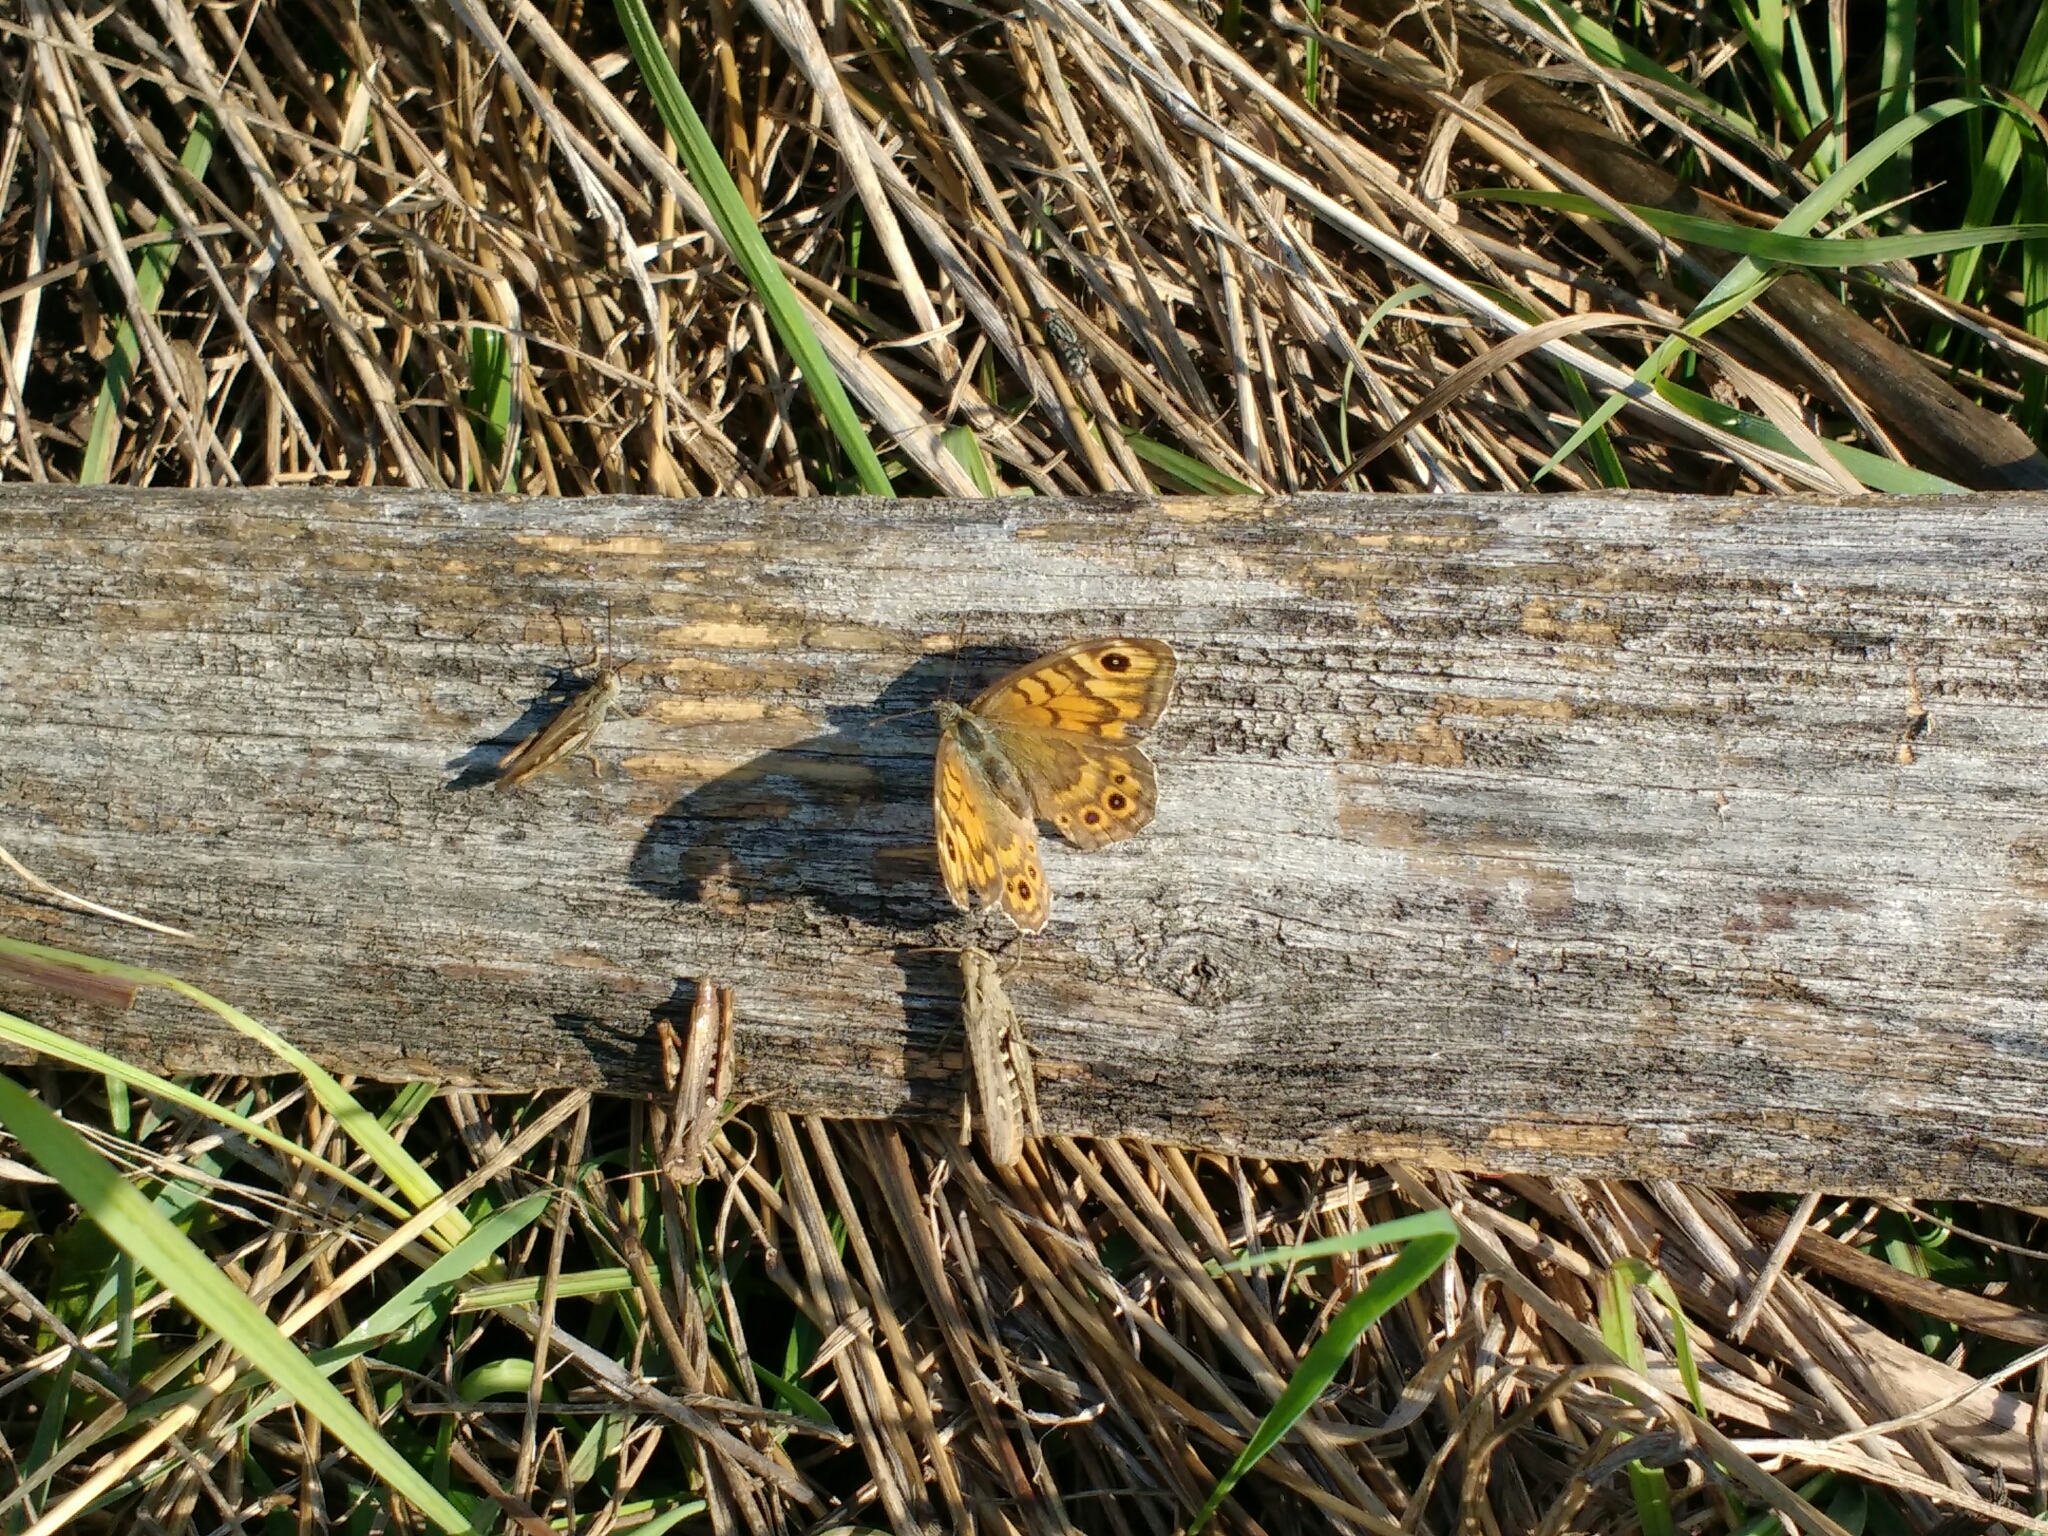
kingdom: Animalia
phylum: Arthropoda
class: Insecta
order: Lepidoptera
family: Nymphalidae
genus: Pararge
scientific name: Pararge Lasiommata megera
